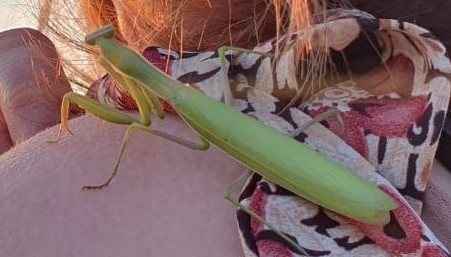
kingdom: Animalia
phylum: Arthropoda
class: Insecta
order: Mantodea
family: Mantidae
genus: Mantis
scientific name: Mantis religiosa
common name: Praying mantis
